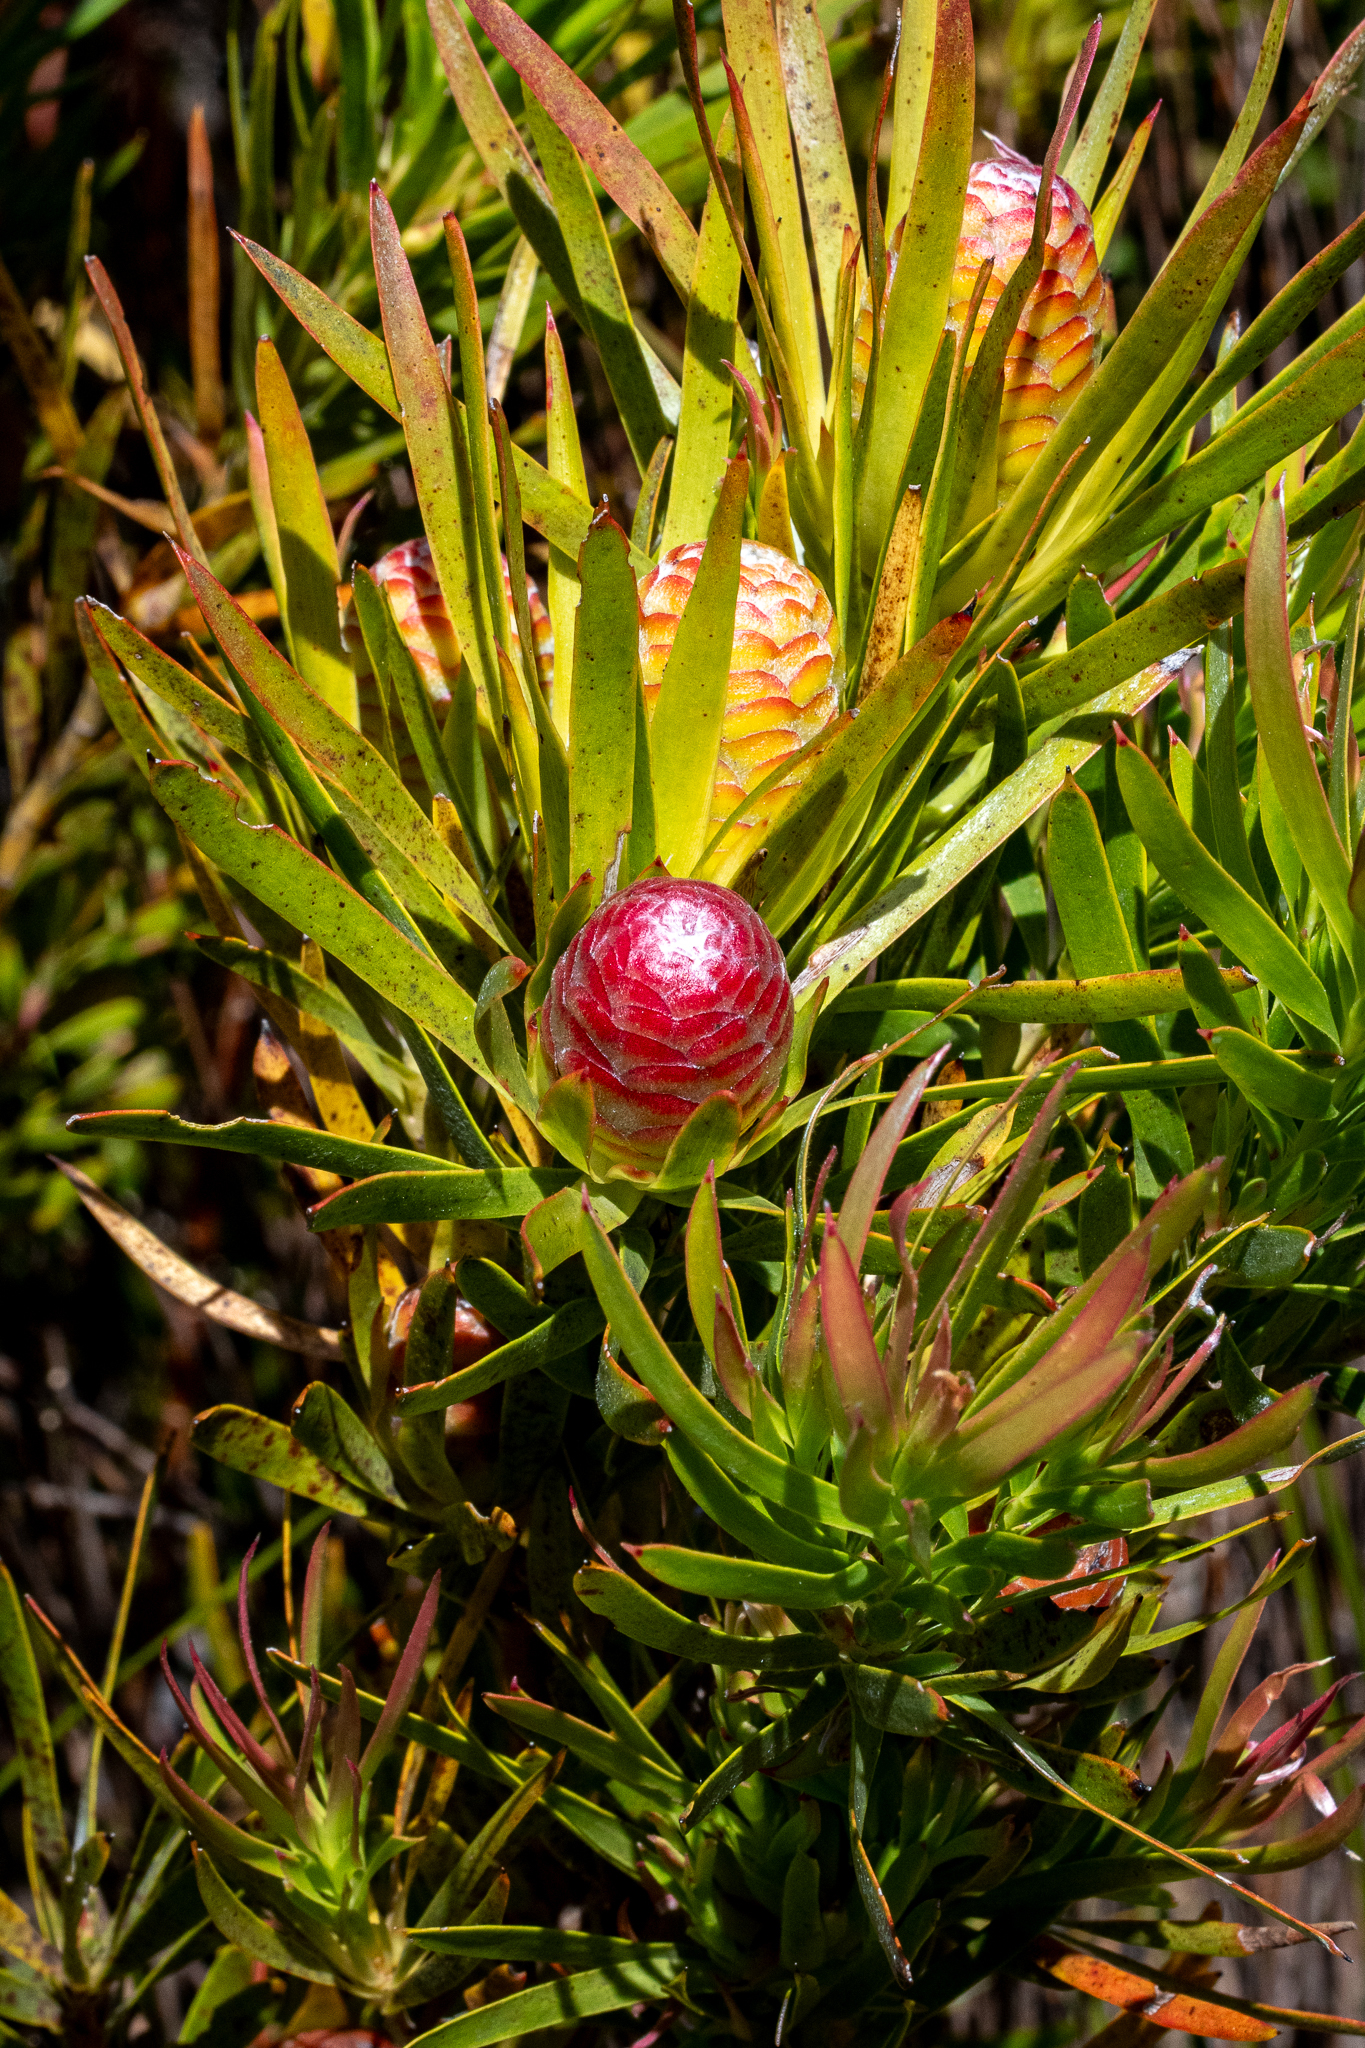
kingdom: Plantae
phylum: Tracheophyta
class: Magnoliopsida
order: Proteales
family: Proteaceae
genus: Leucadendron
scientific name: Leucadendron xanthoconus
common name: Sickle-leaf conebush
